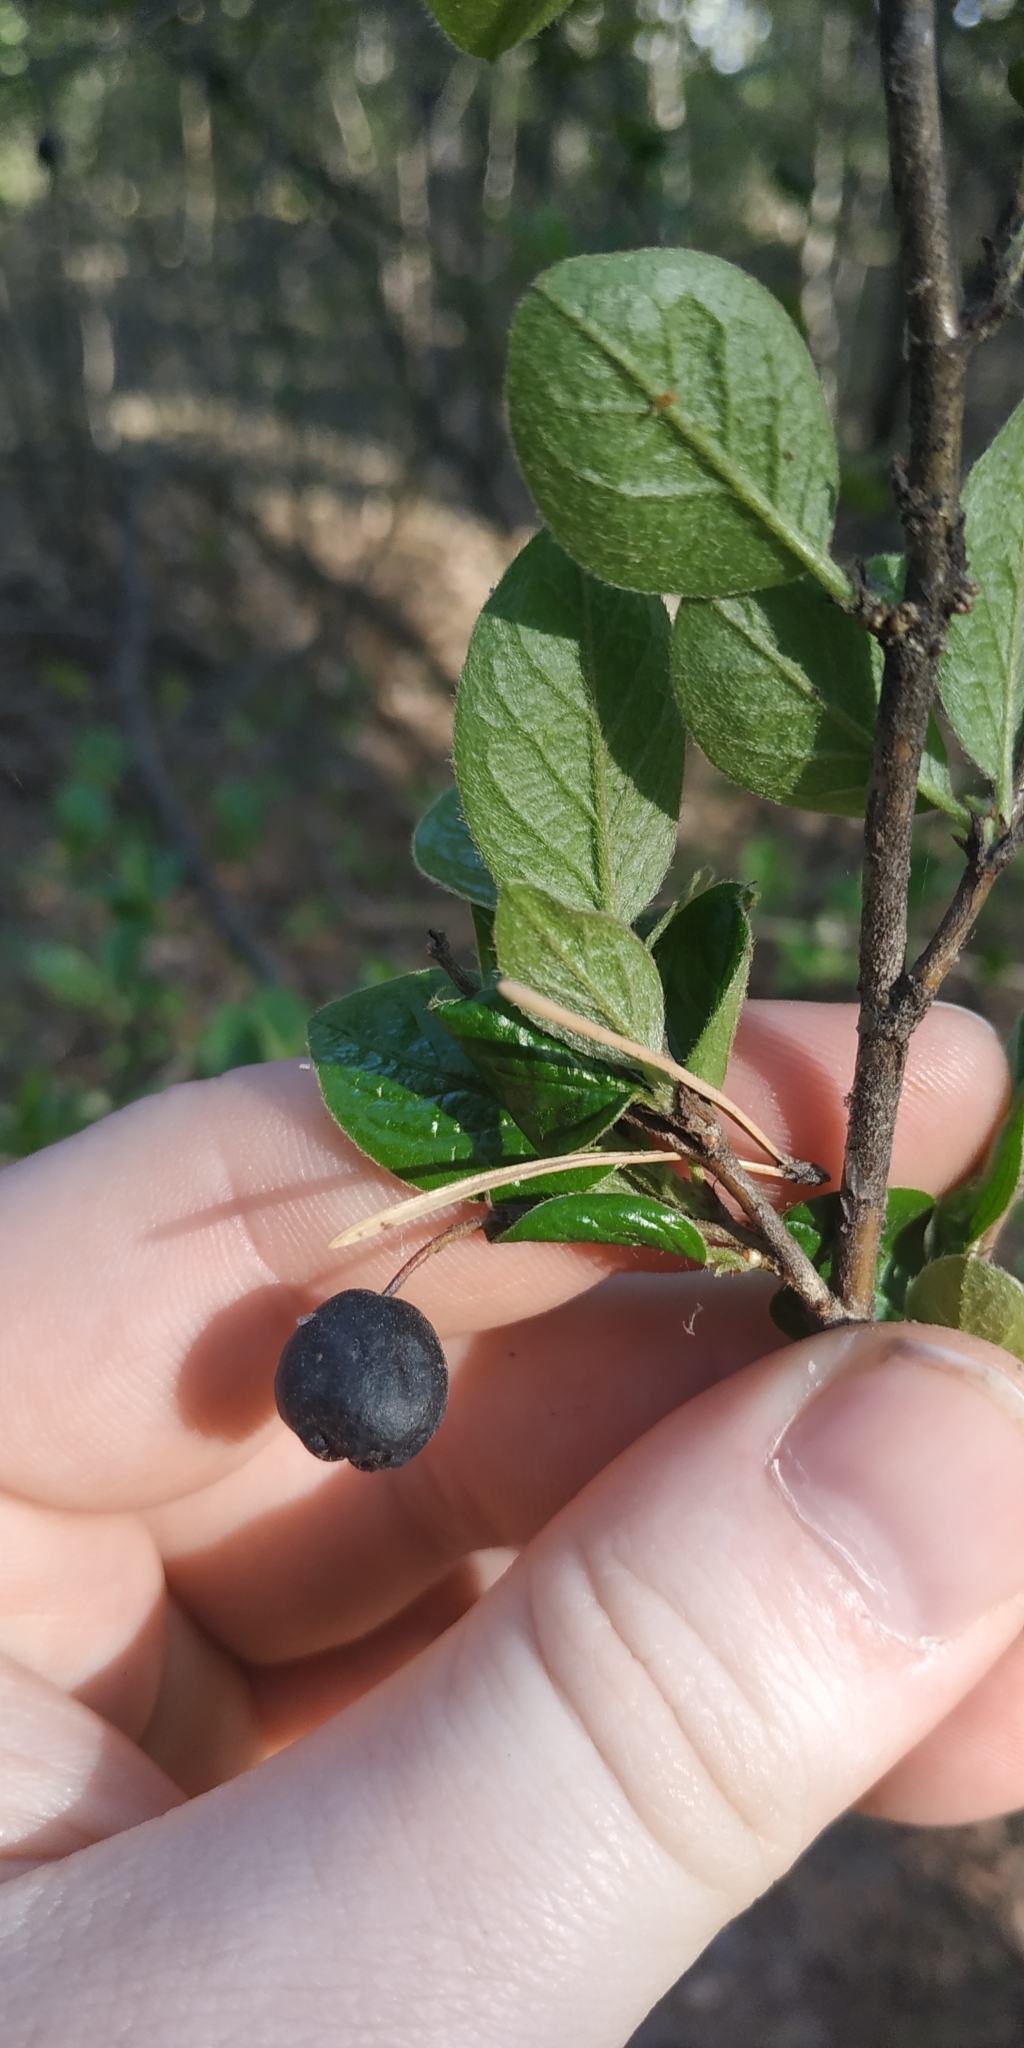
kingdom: Plantae
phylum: Tracheophyta
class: Magnoliopsida
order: Rosales
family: Rosaceae
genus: Cotoneaster
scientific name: Cotoneaster acutifolius
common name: Peking cotoneaster
